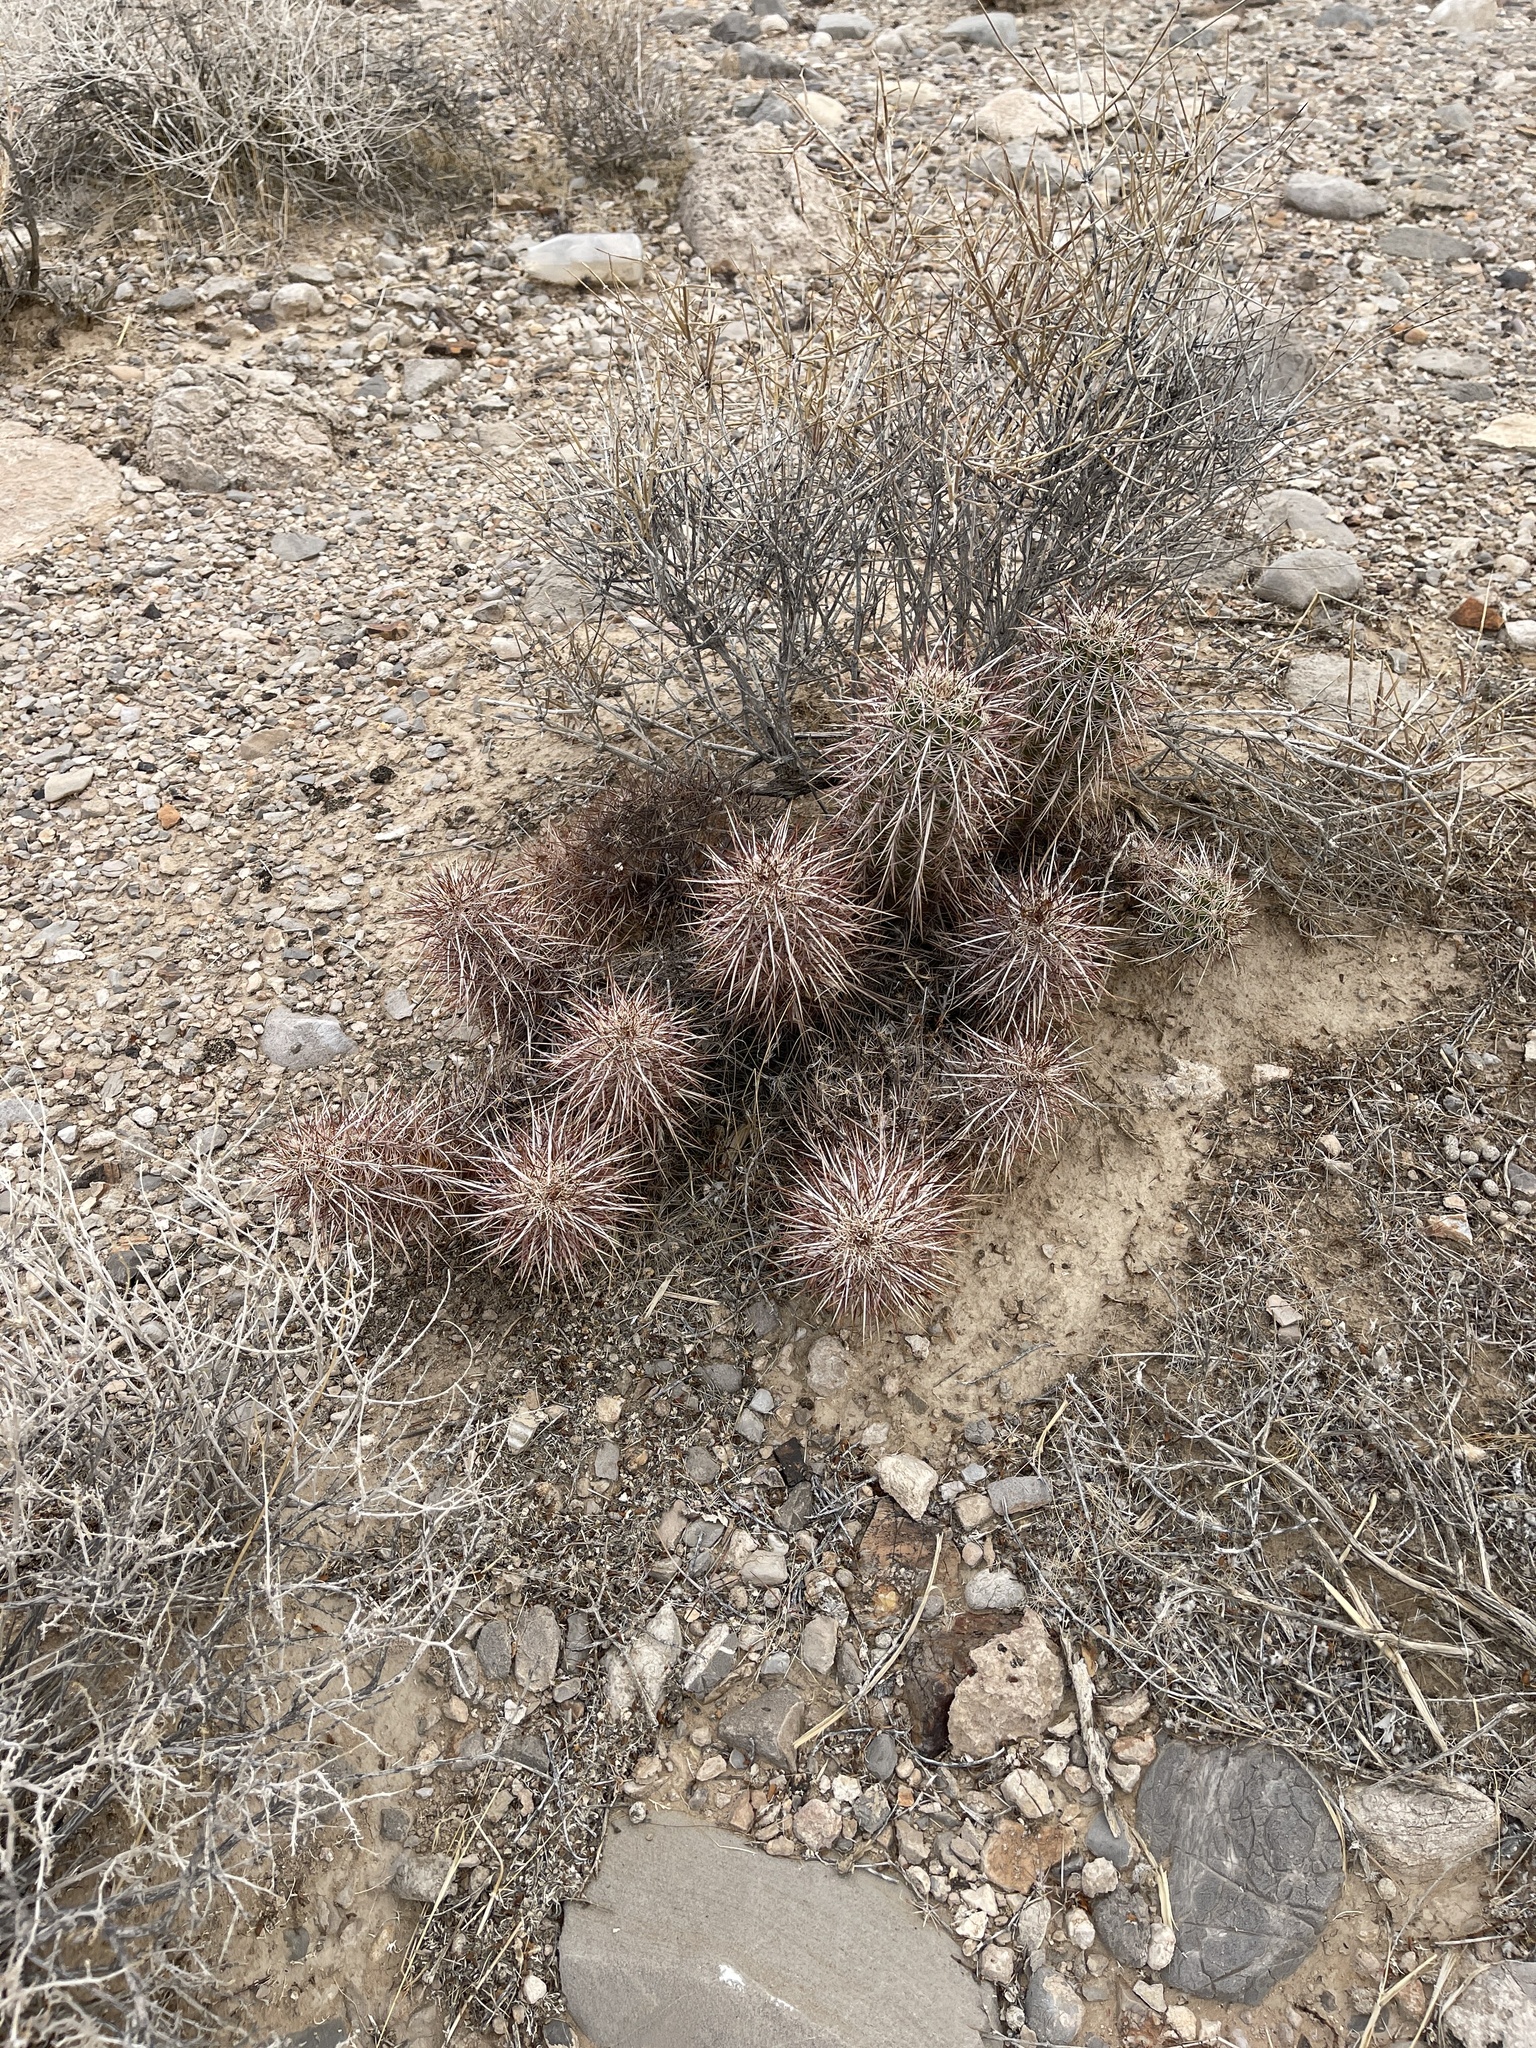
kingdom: Plantae
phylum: Tracheophyta
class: Magnoliopsida
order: Caryophyllales
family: Cactaceae
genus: Echinocereus
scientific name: Echinocereus engelmannii
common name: Engelmann's hedgehog cactus
